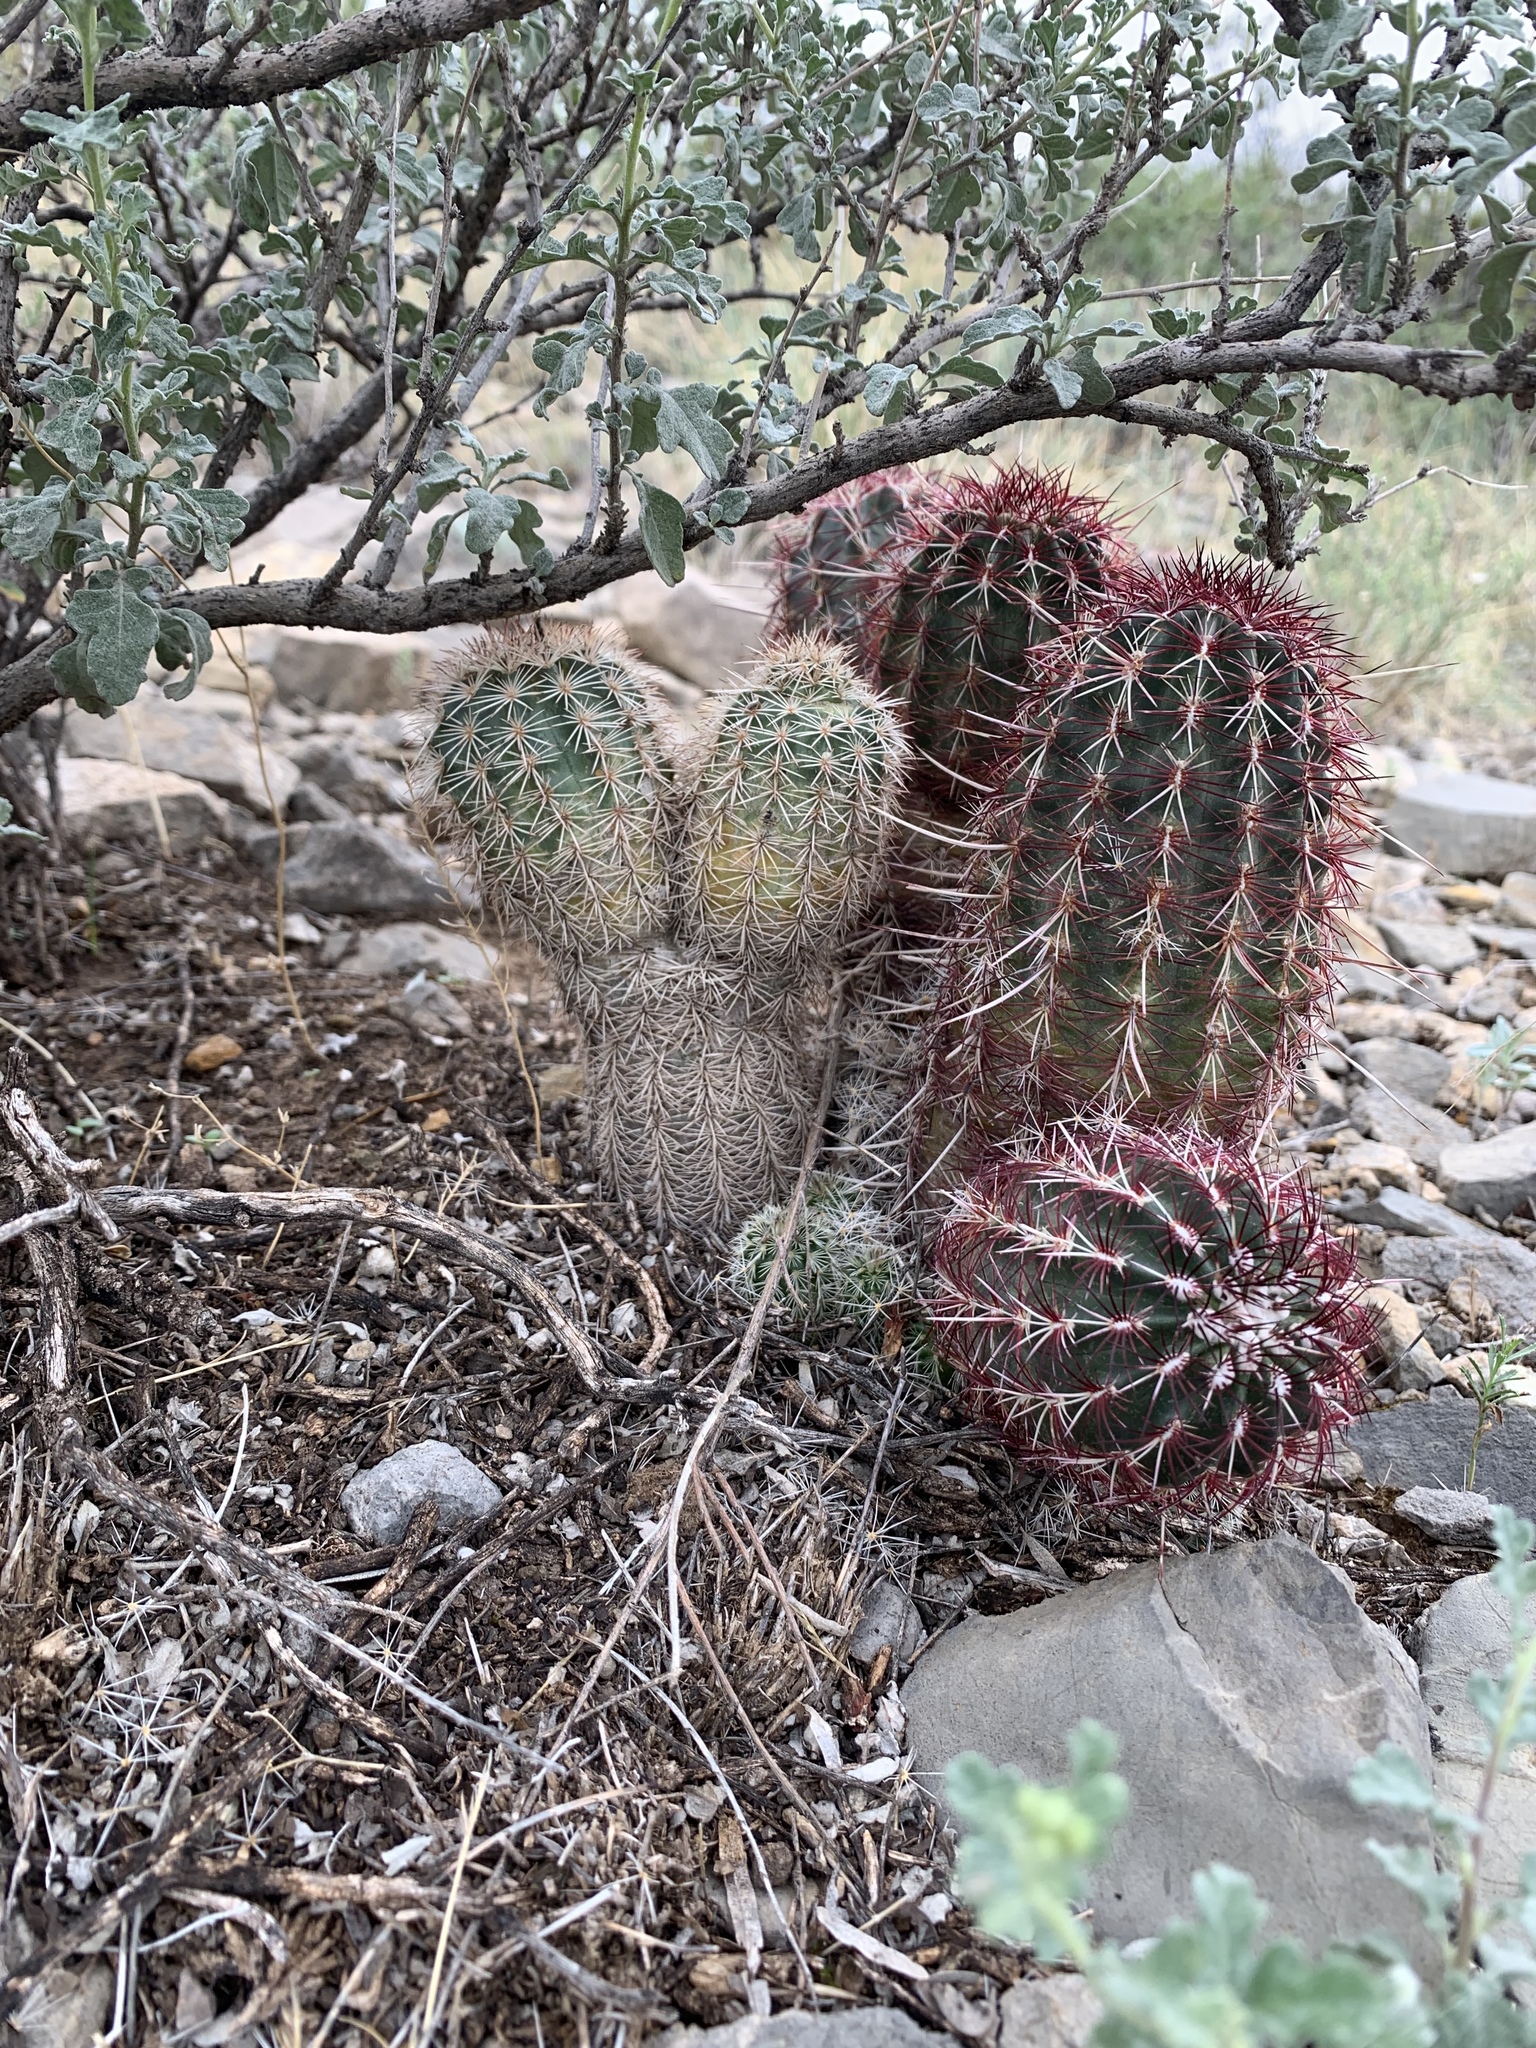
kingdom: Plantae
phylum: Tracheophyta
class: Magnoliopsida
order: Caryophyllales
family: Cactaceae
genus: Echinocereus
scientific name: Echinocereus dasyacanthus
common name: Spiny hedgehog cactus
